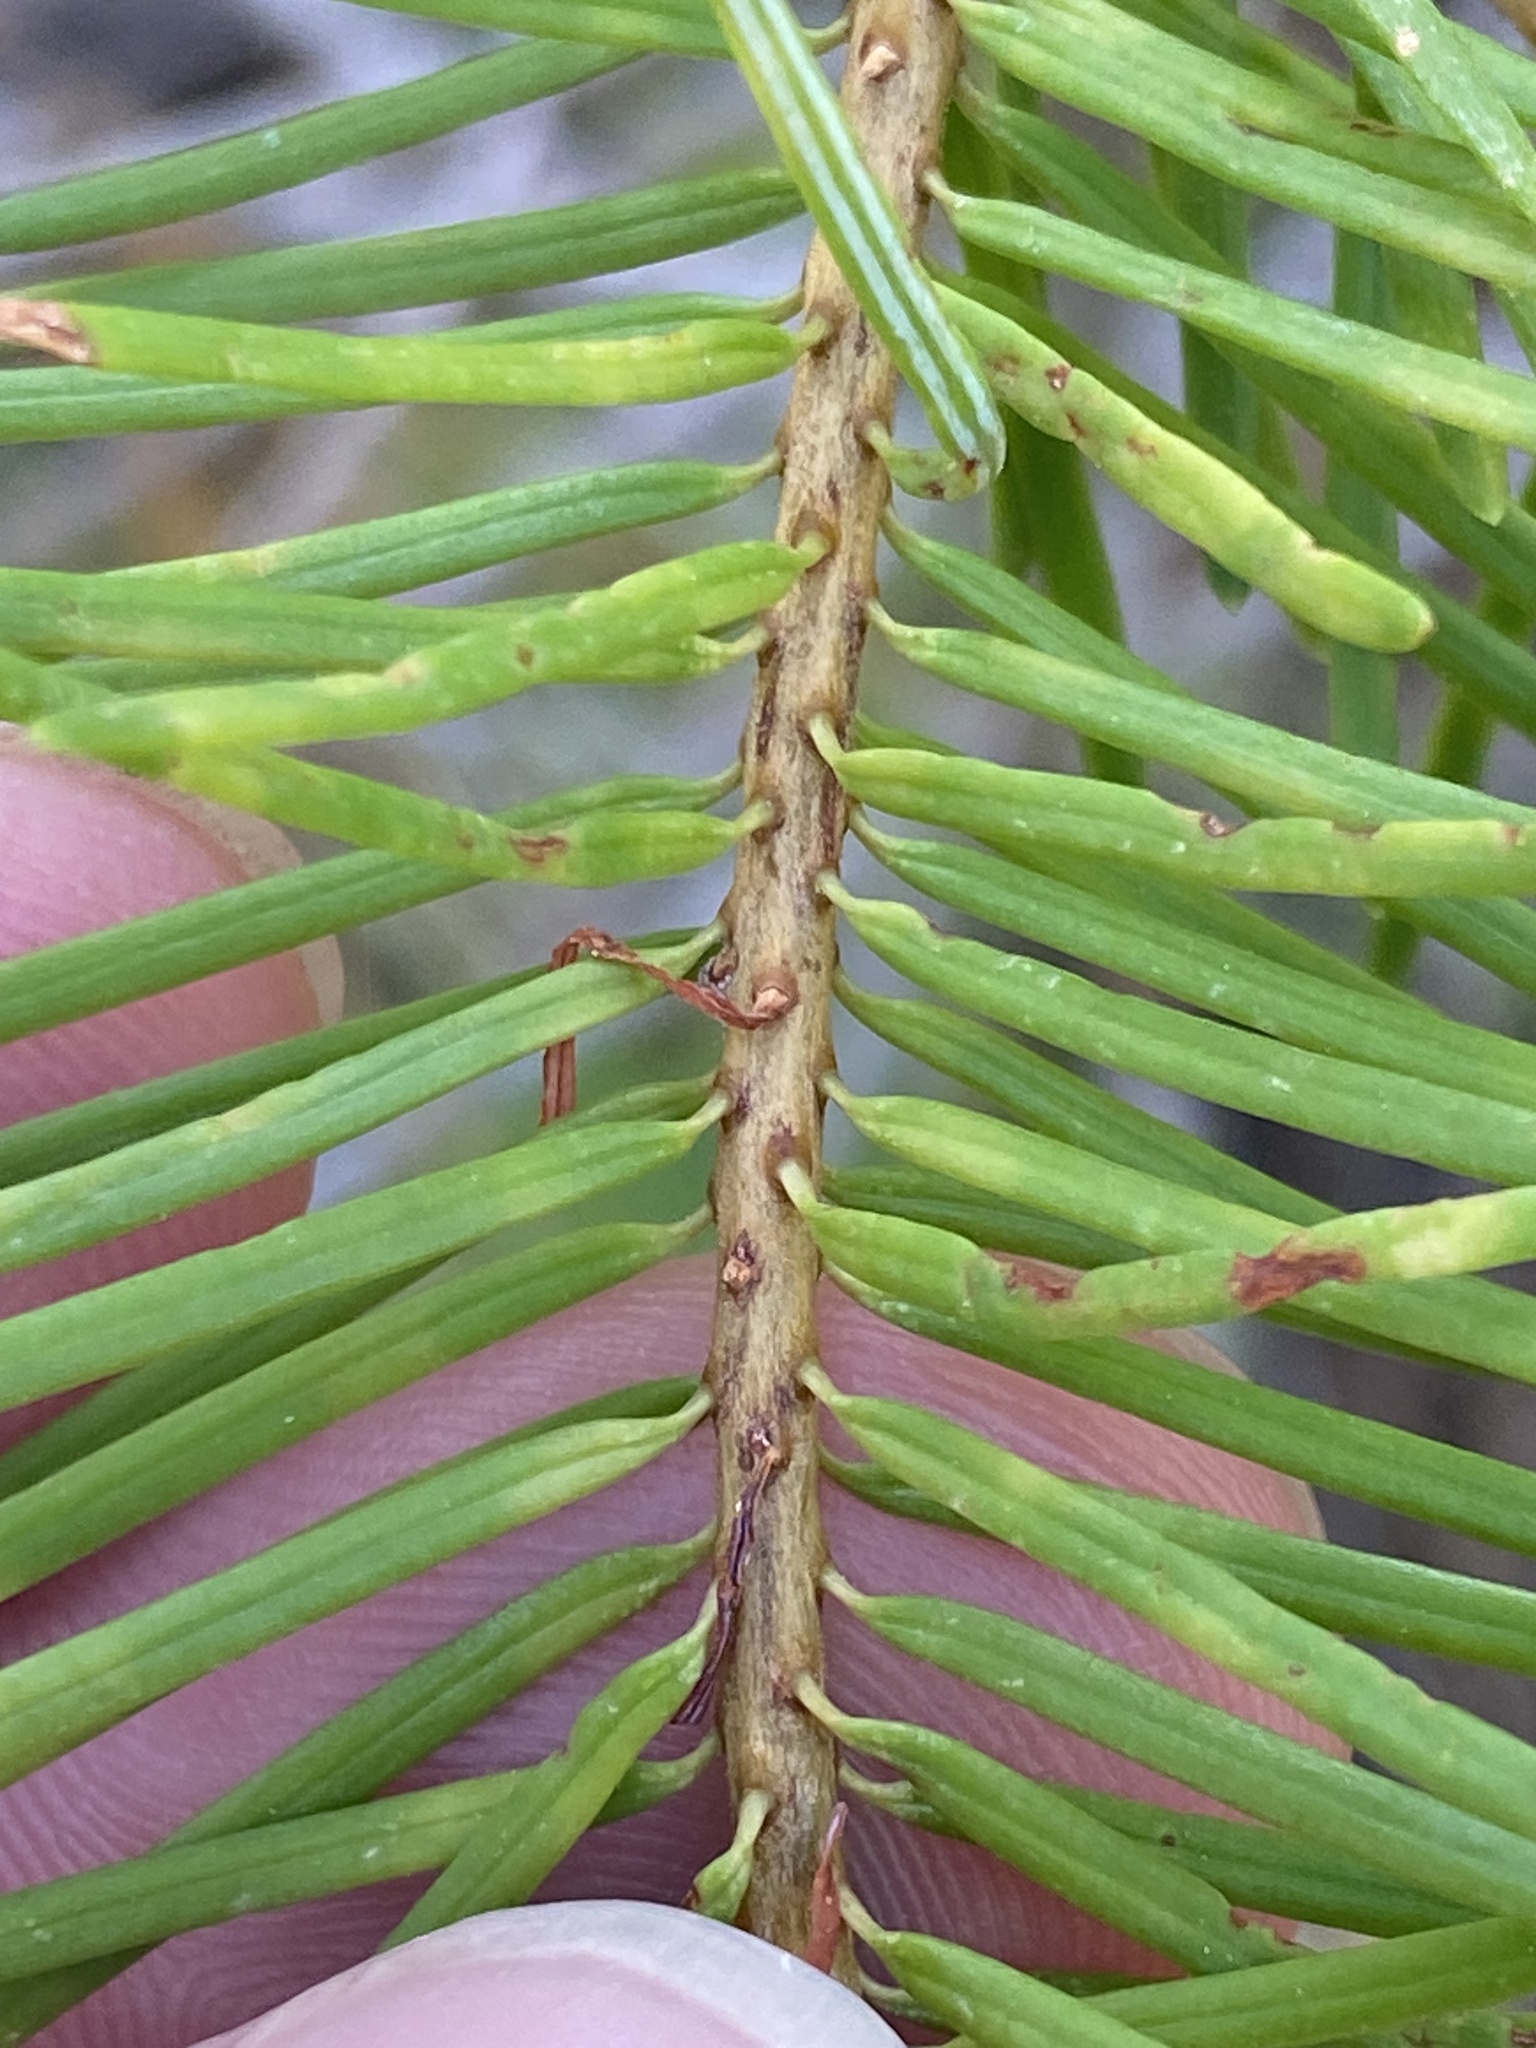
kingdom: Plantae
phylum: Tracheophyta
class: Pinopsida
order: Pinales
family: Pinaceae
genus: Pseudotsuga
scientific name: Pseudotsuga menziesii
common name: Douglas fir
